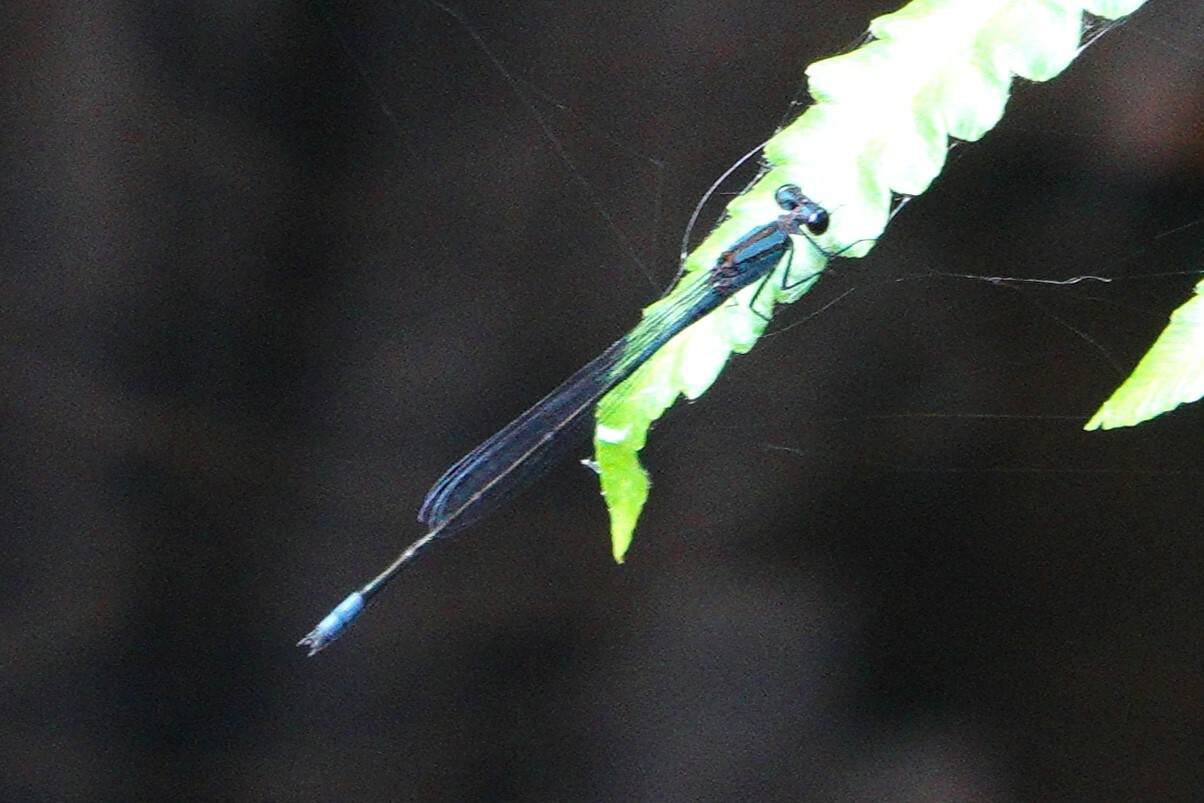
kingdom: Animalia
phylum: Arthropoda
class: Insecta
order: Odonata
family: Coenagrionidae
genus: Enallagma
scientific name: Enallagma cardenium
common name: Purple bluet
